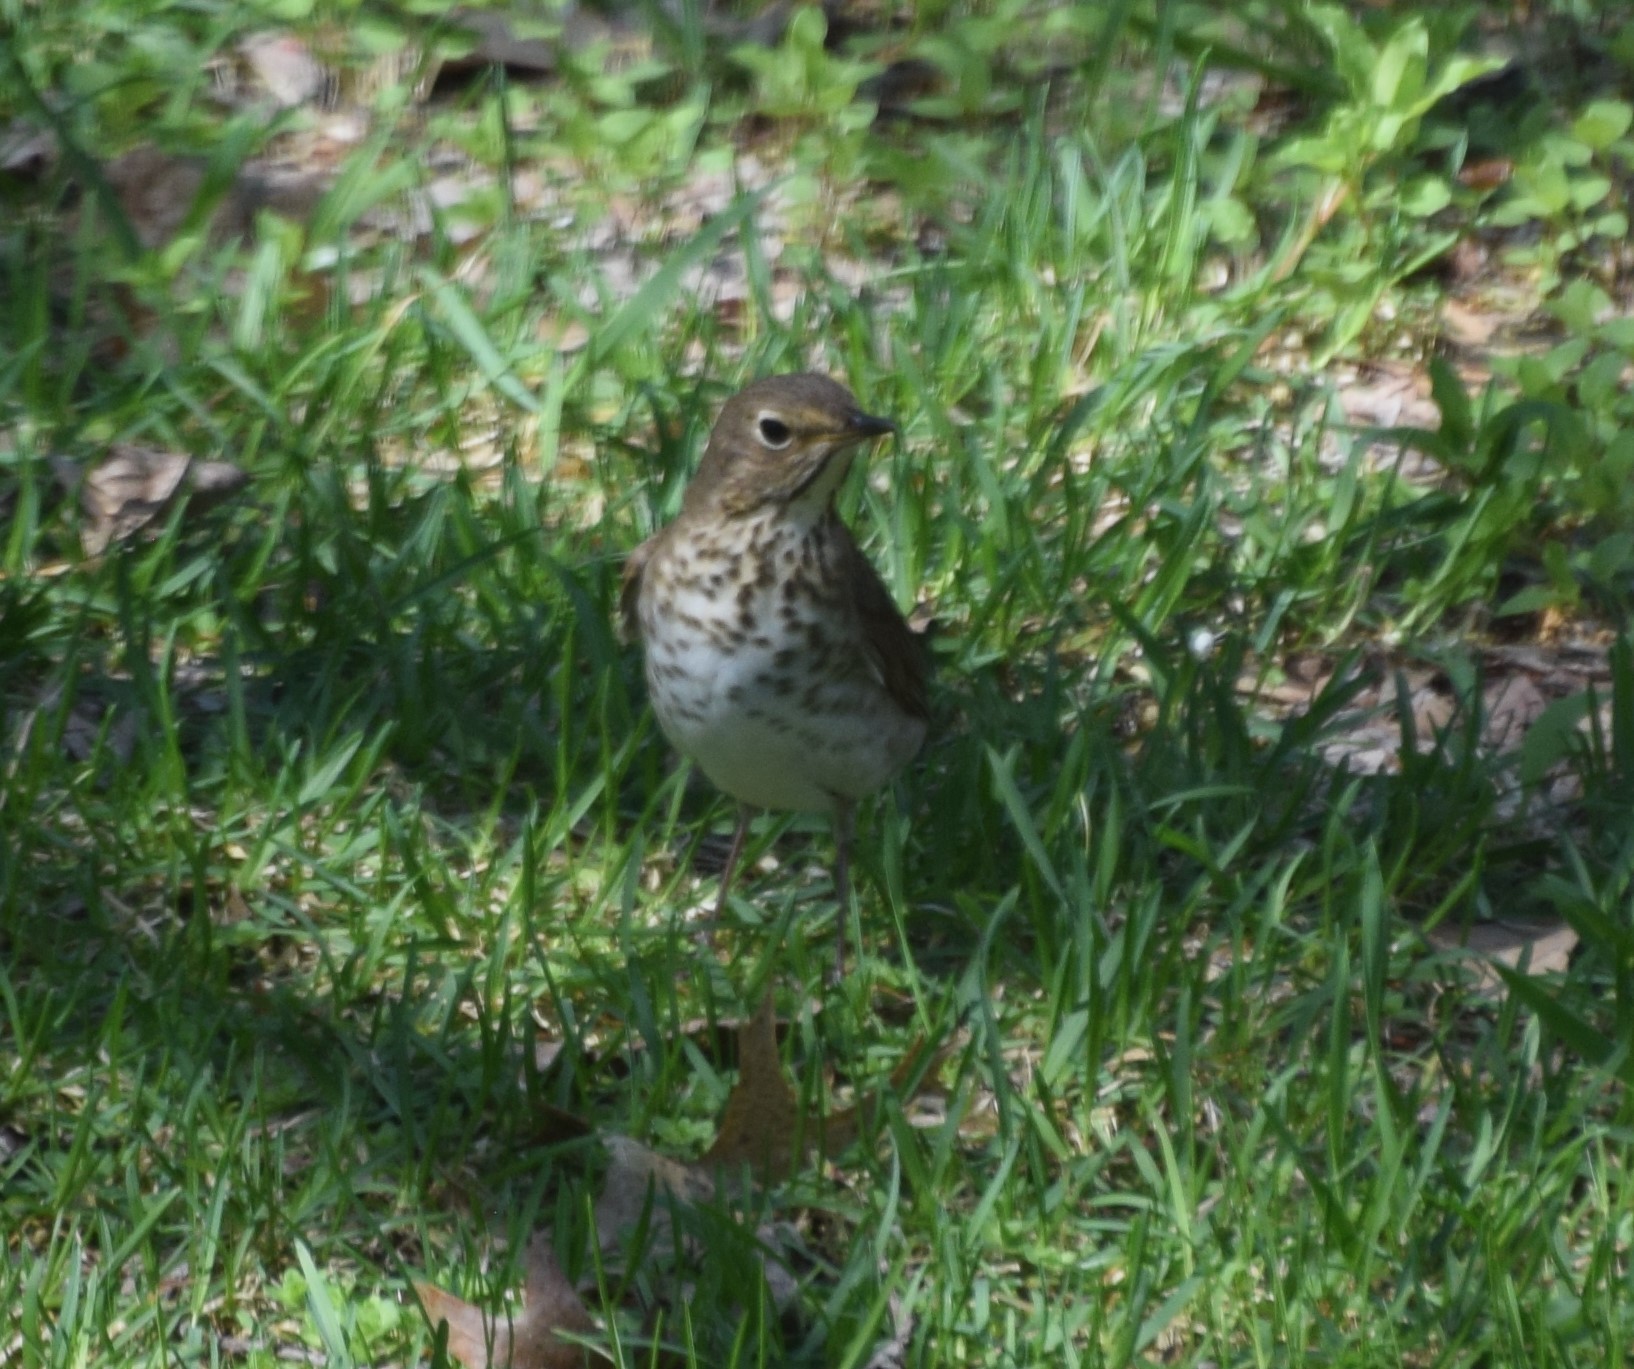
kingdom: Animalia
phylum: Chordata
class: Aves
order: Passeriformes
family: Turdidae
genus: Catharus
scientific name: Catharus ustulatus
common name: Swainson's thrush
